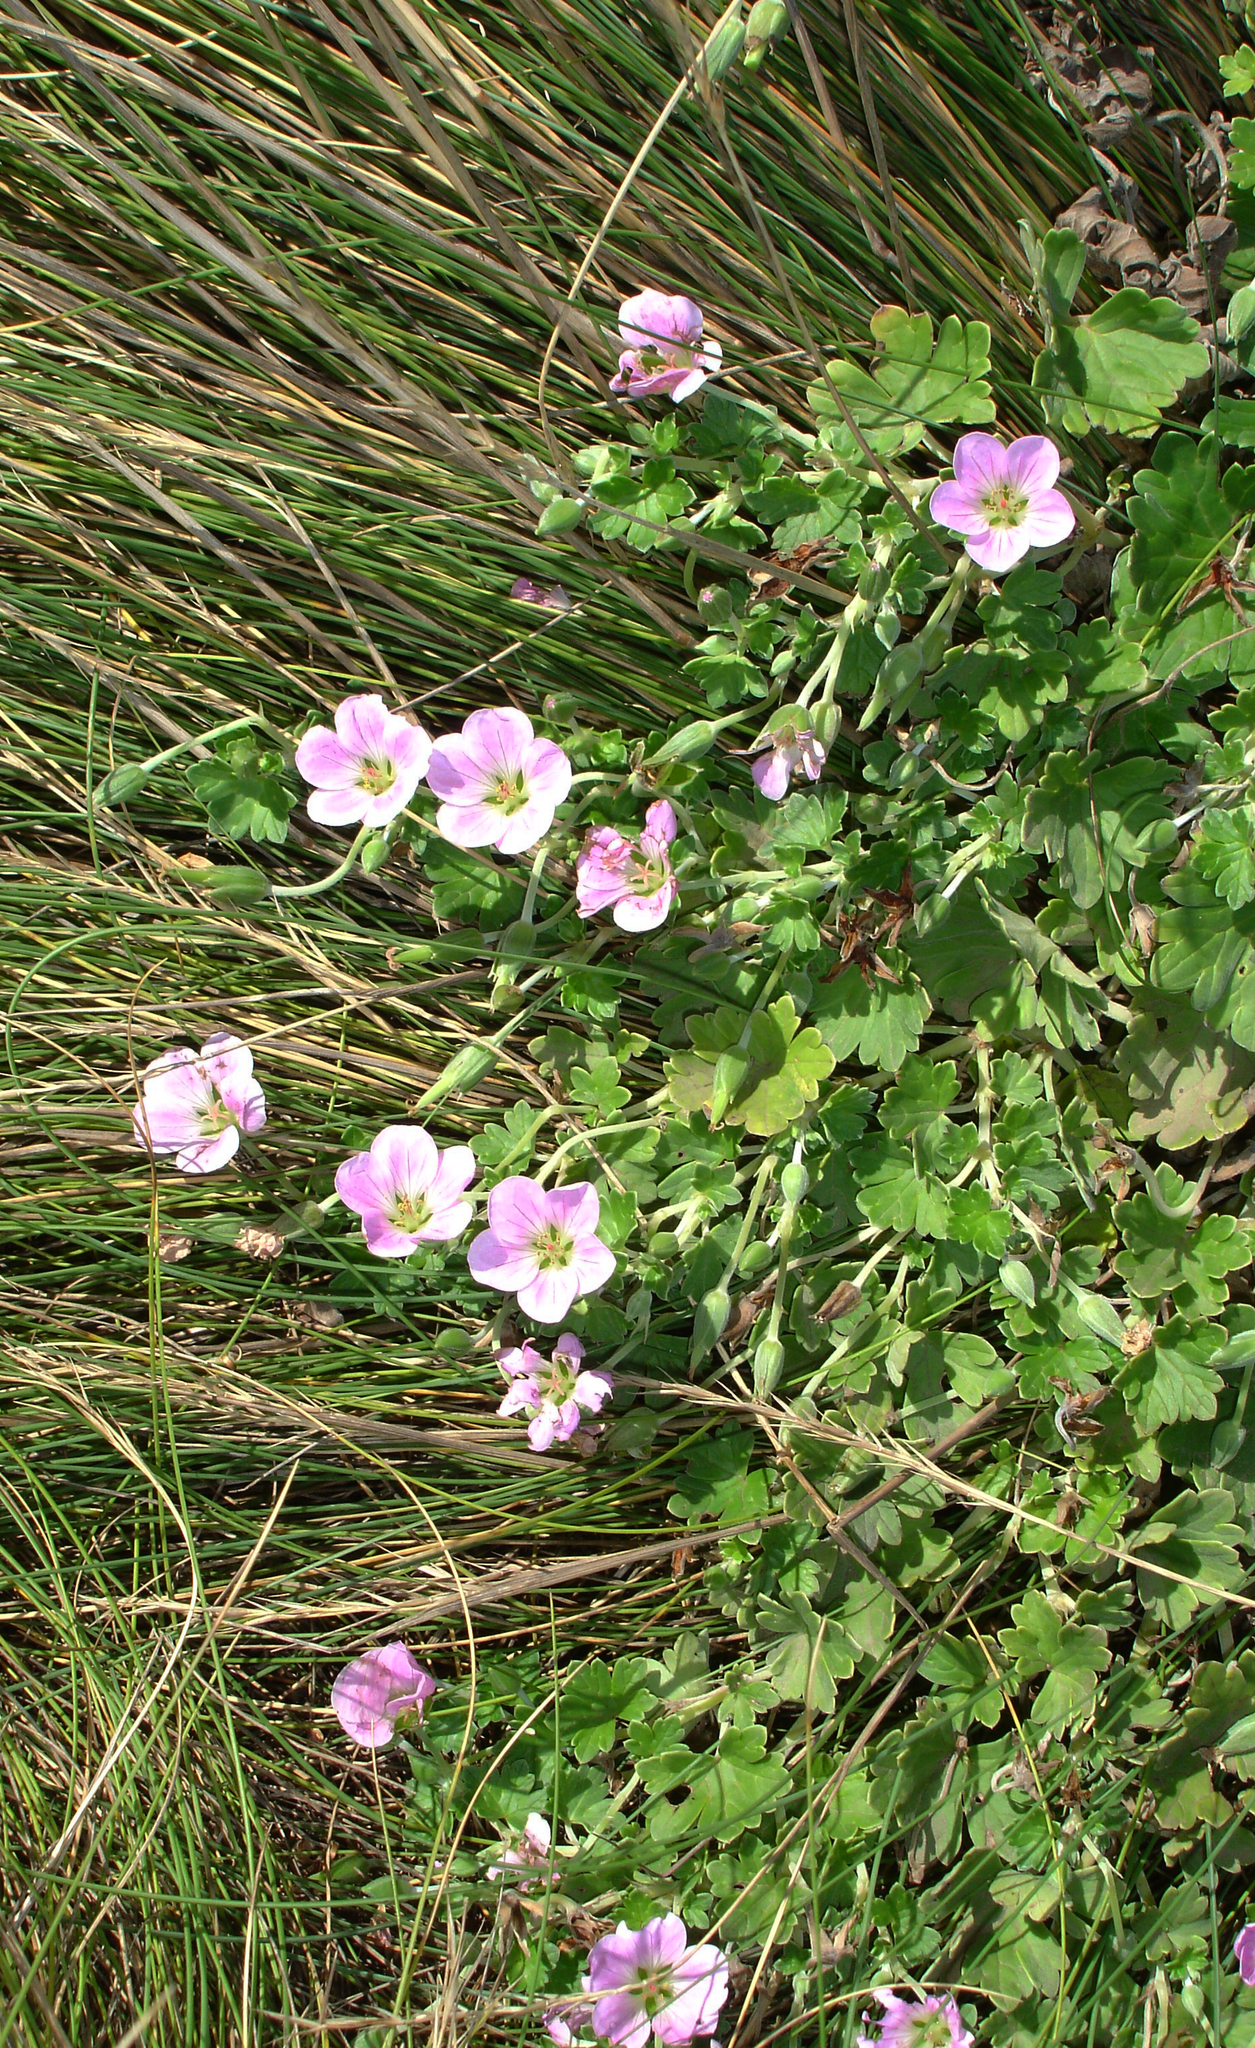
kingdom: Plantae
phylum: Tracheophyta
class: Magnoliopsida
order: Geraniales
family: Geraniaceae
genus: Geranium
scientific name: Geranium traversii
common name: Cranesbill
